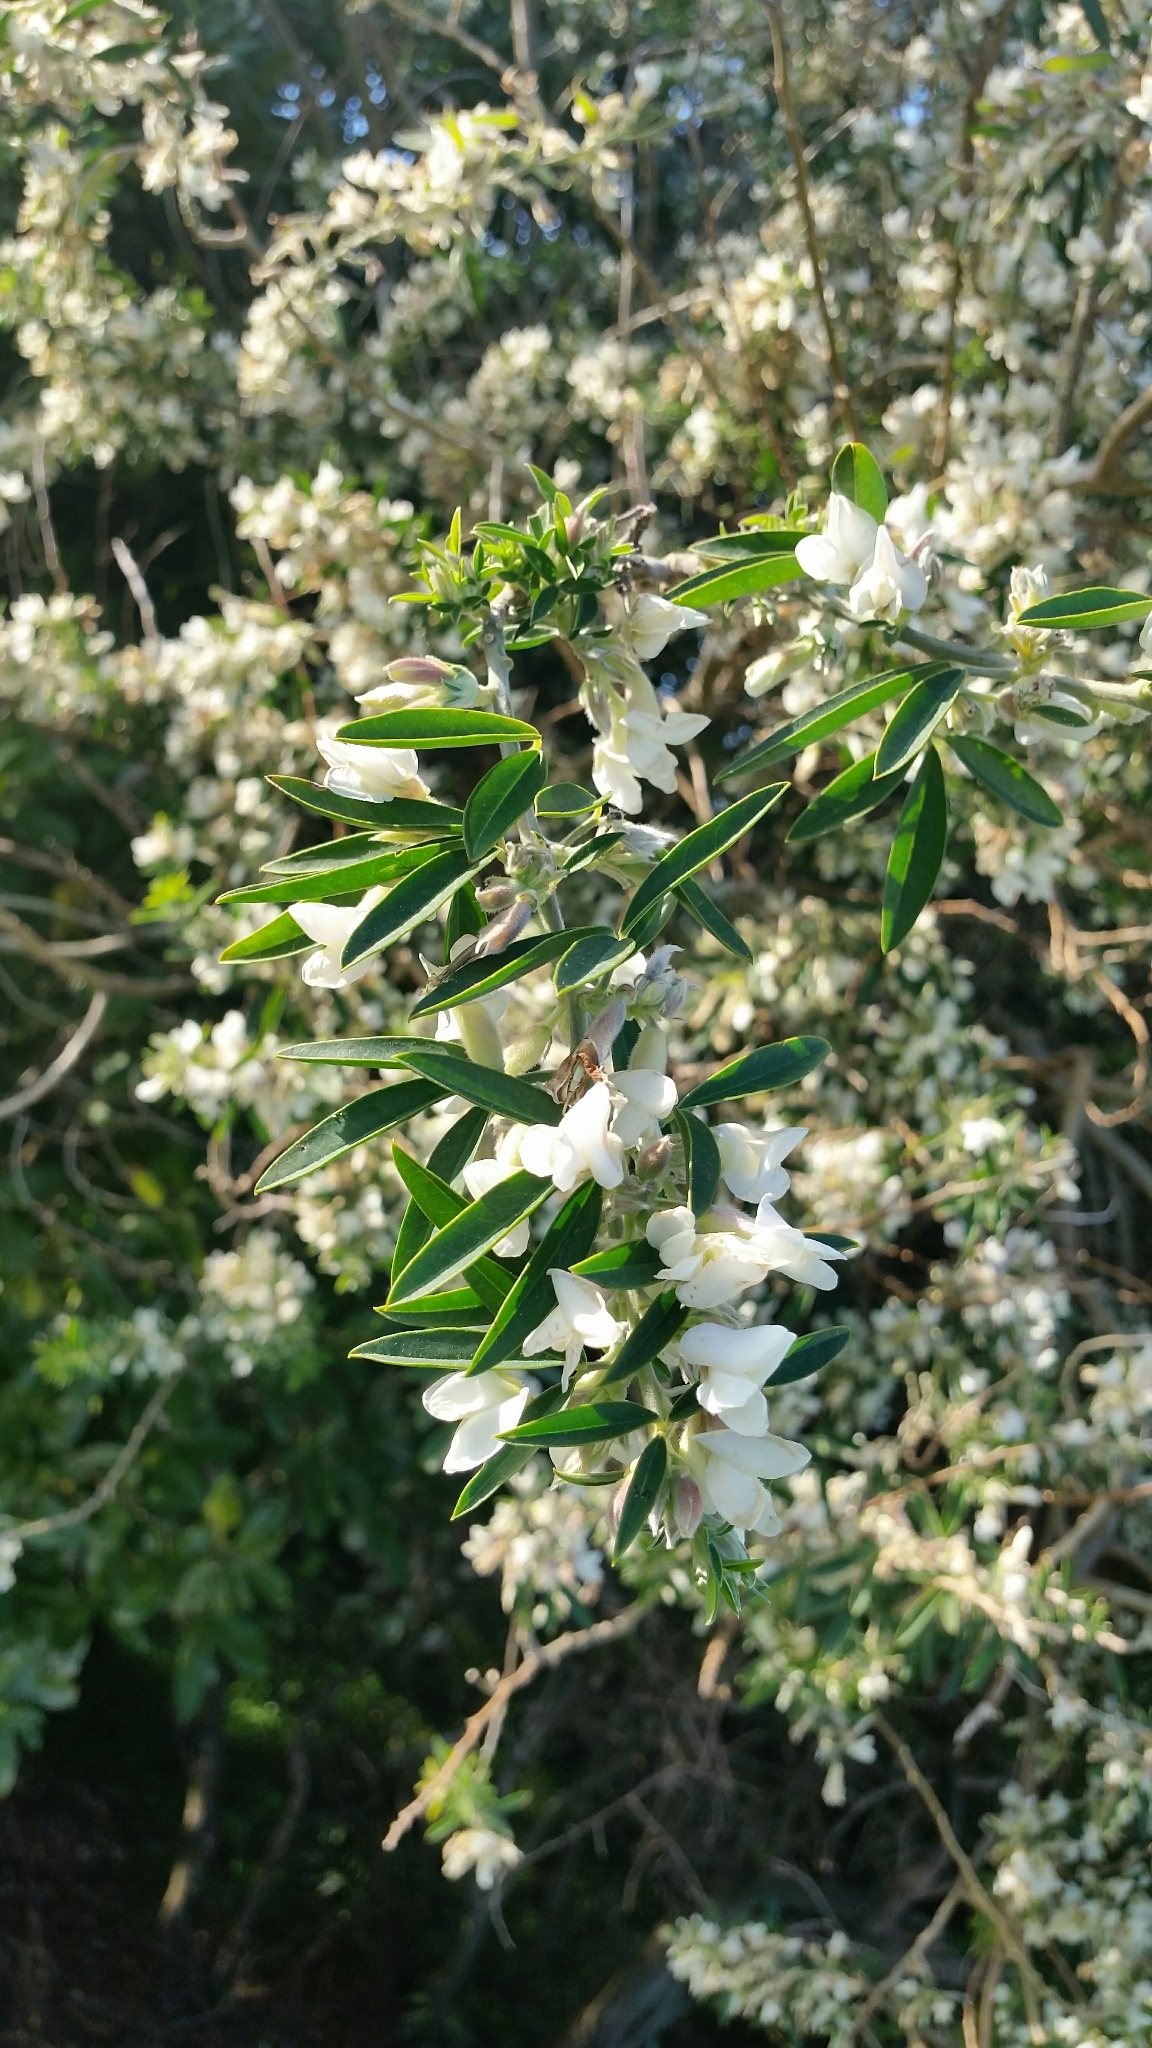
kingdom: Plantae
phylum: Tracheophyta
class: Magnoliopsida
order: Fabales
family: Fabaceae
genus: Chamaecytisus
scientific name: Chamaecytisus prolifer
